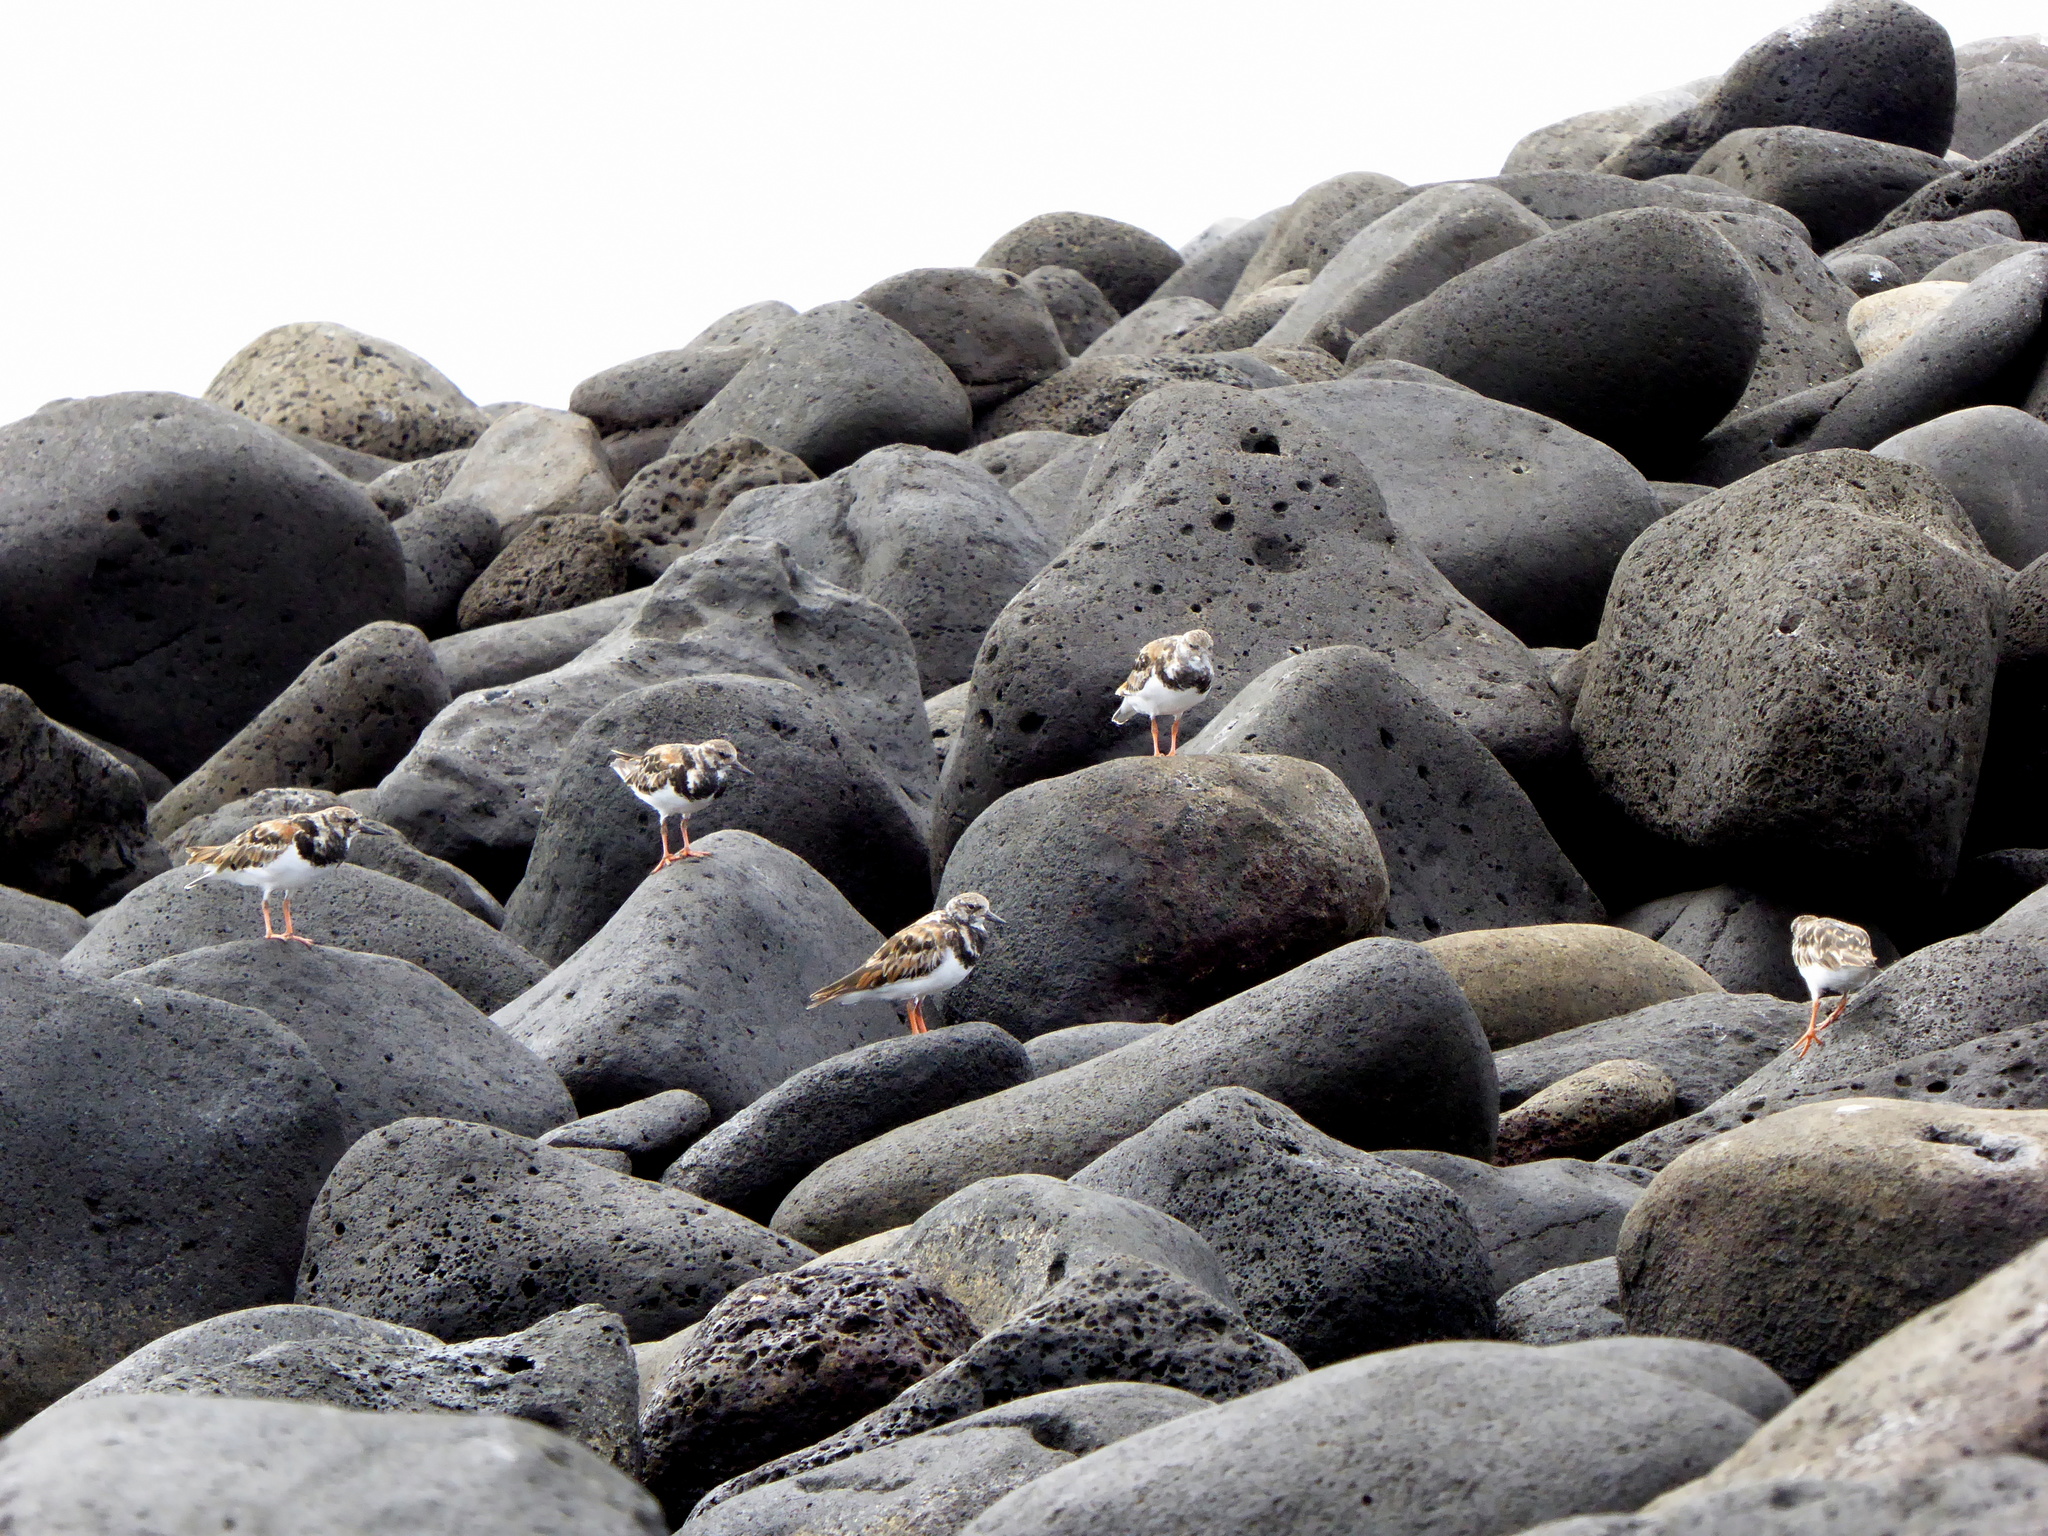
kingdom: Animalia
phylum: Chordata
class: Aves
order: Charadriiformes
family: Scolopacidae
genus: Arenaria
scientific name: Arenaria interpres
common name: Ruddy turnstone
